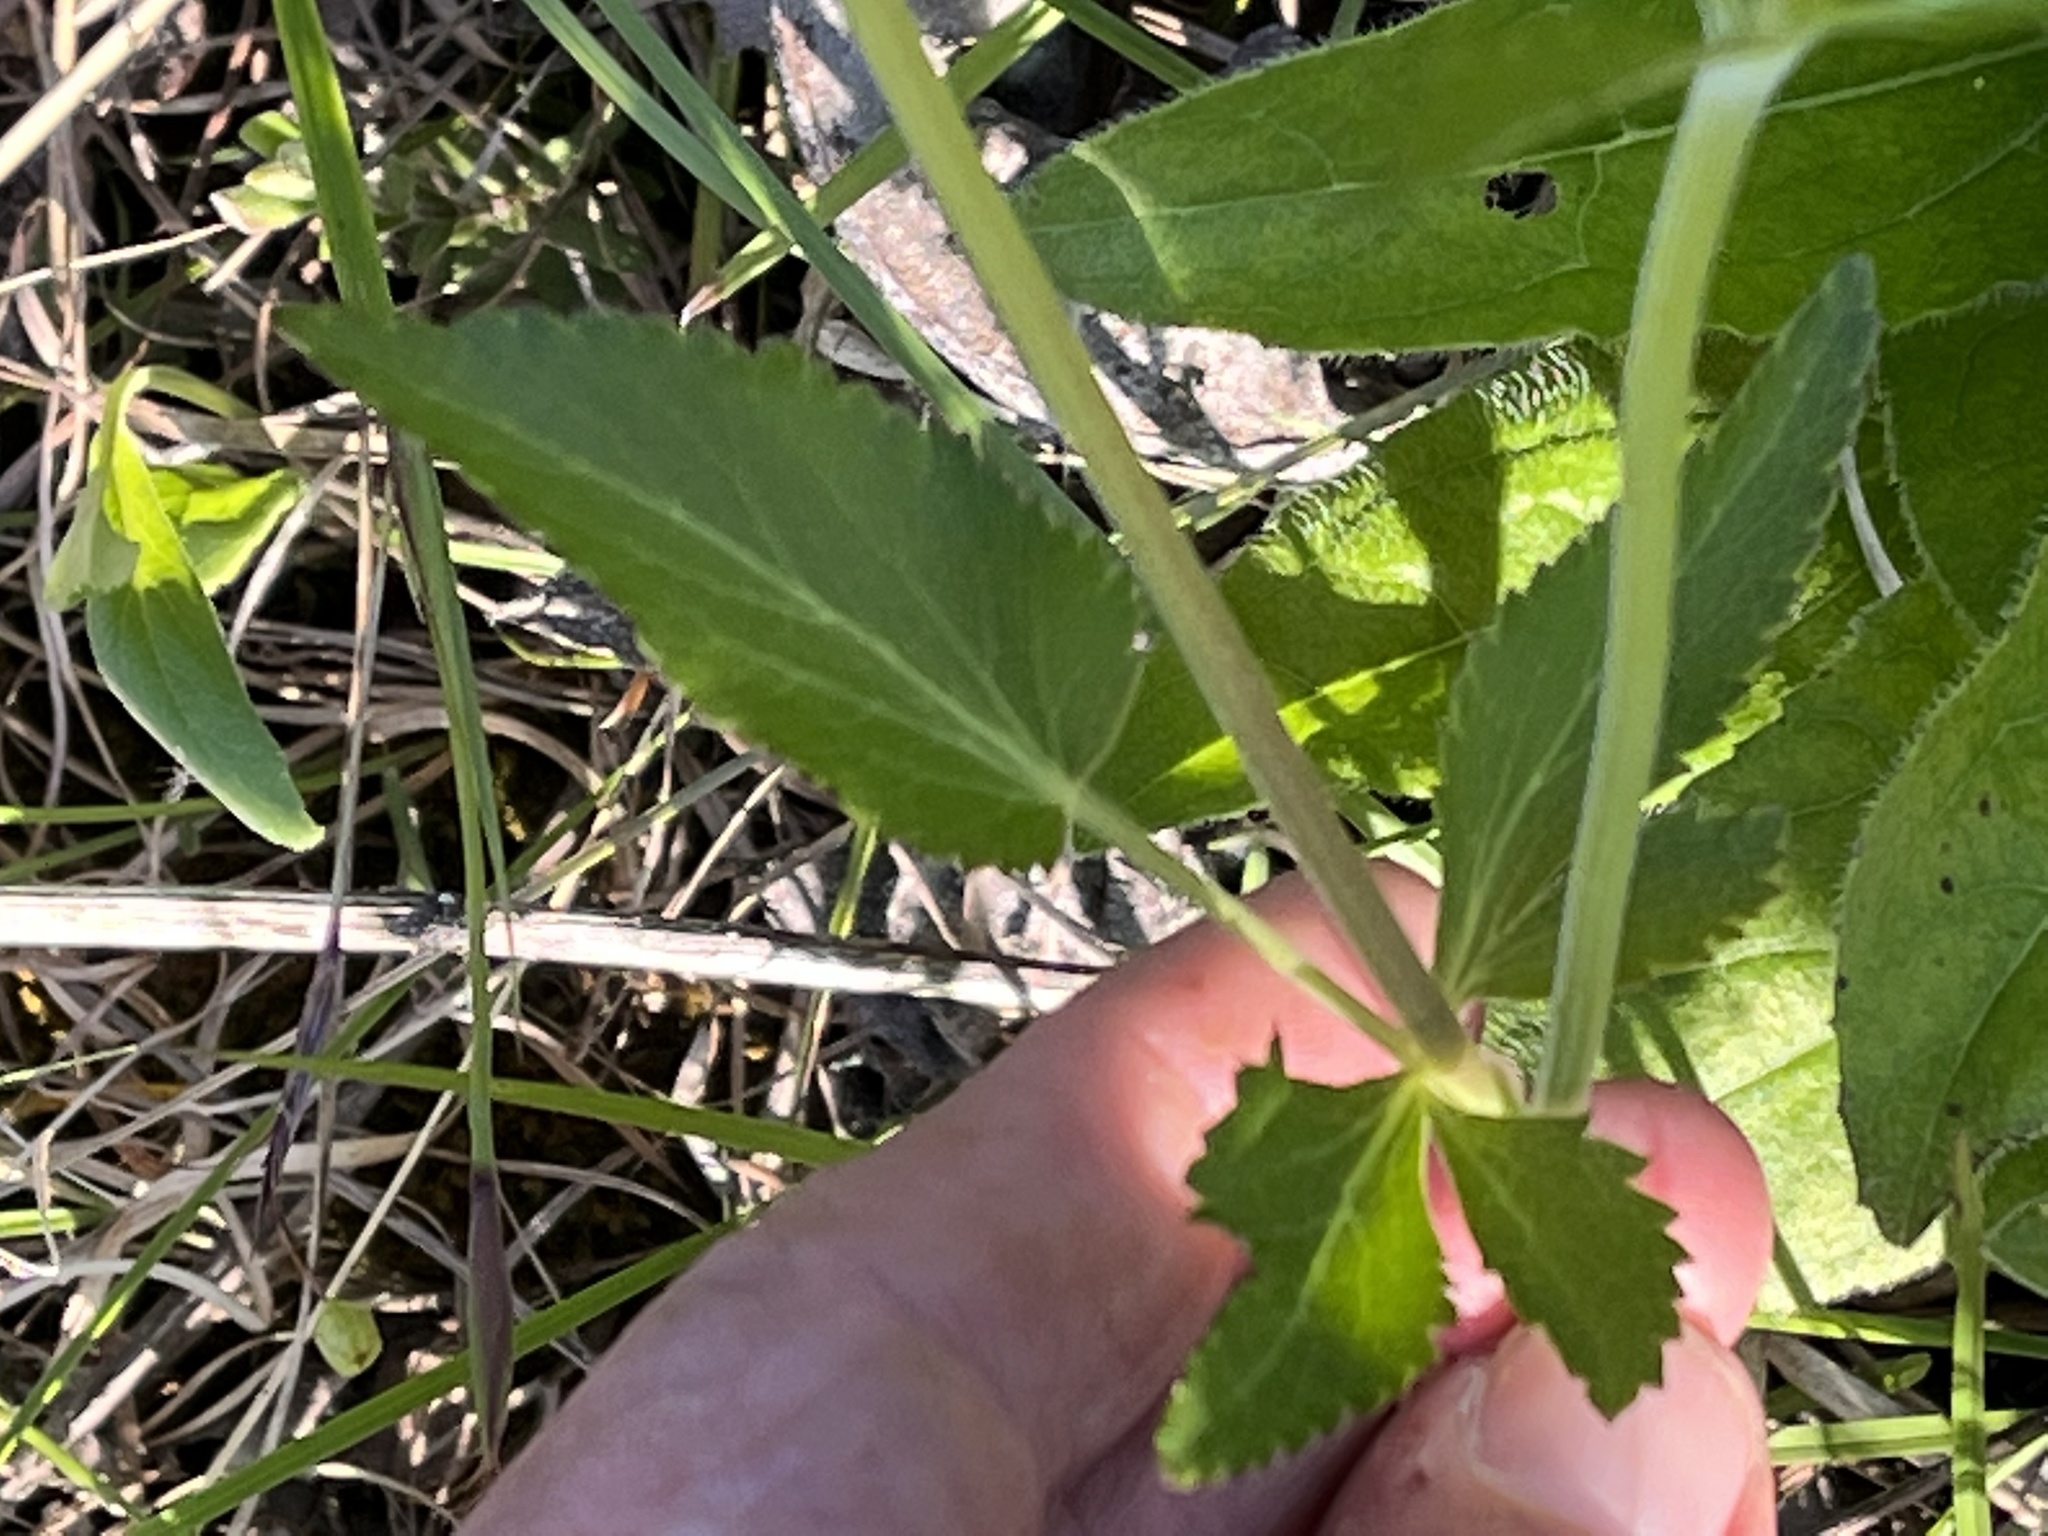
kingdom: Plantae
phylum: Tracheophyta
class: Magnoliopsida
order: Apiales
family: Apiaceae
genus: Zizia
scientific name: Zizia aptera
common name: Heart-leaved alexanders
